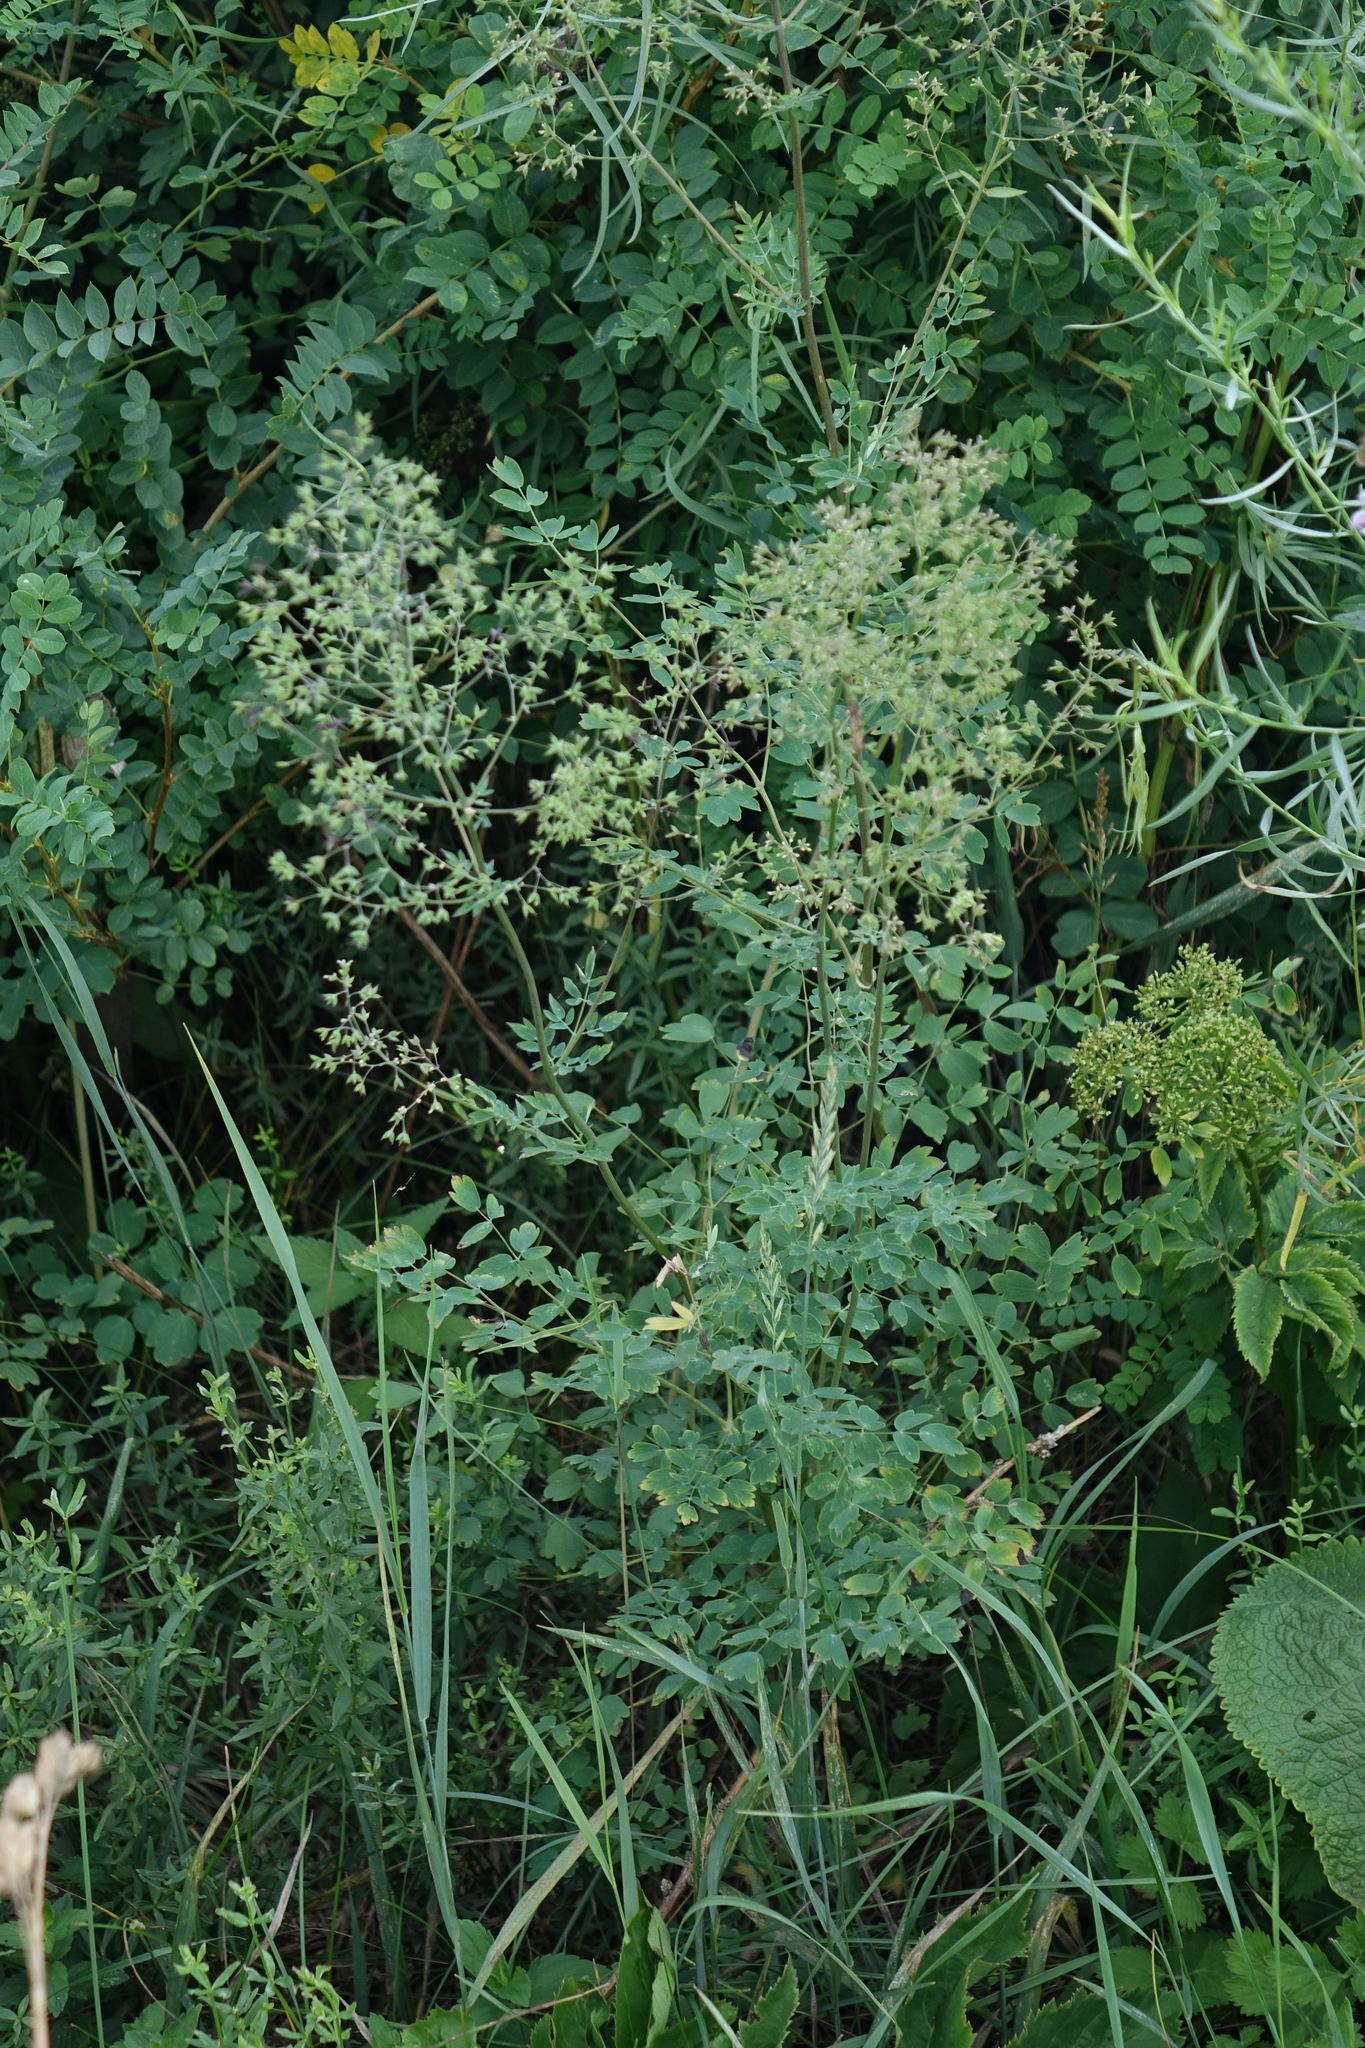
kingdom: Plantae
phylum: Tracheophyta
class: Magnoliopsida
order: Ranunculales
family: Ranunculaceae
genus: Thalictrum
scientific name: Thalictrum minus
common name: Lesser meadow-rue
